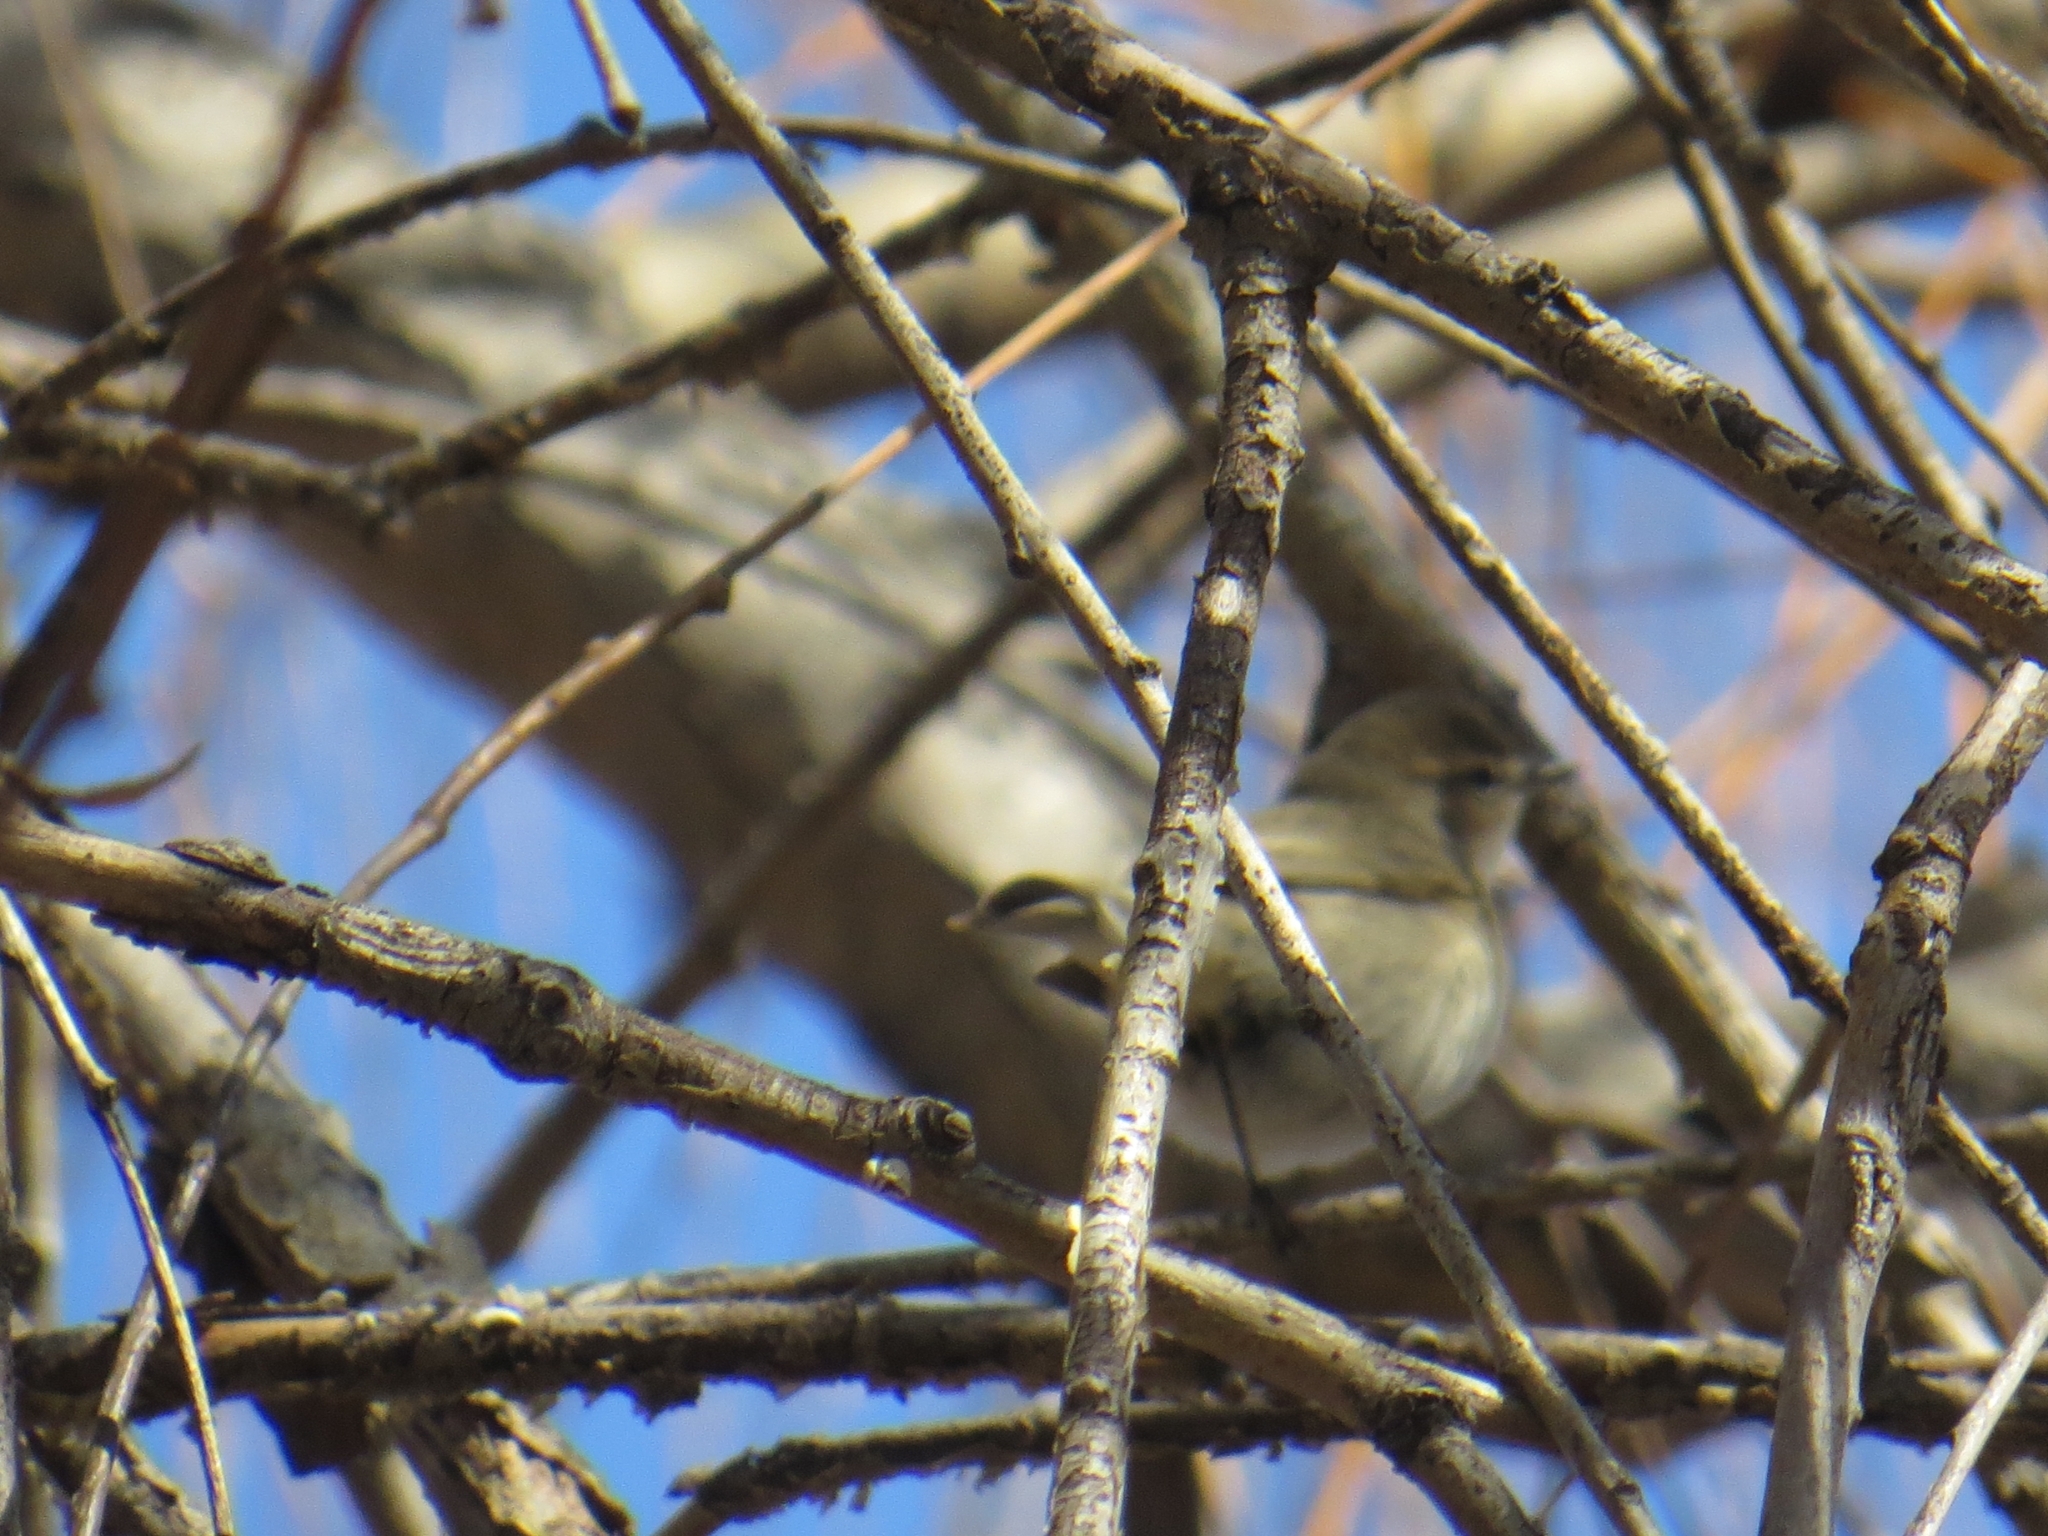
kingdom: Animalia
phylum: Chordata
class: Aves
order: Passeriformes
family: Phylloscopidae
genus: Phylloscopus
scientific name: Phylloscopus collybita
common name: Common chiffchaff
